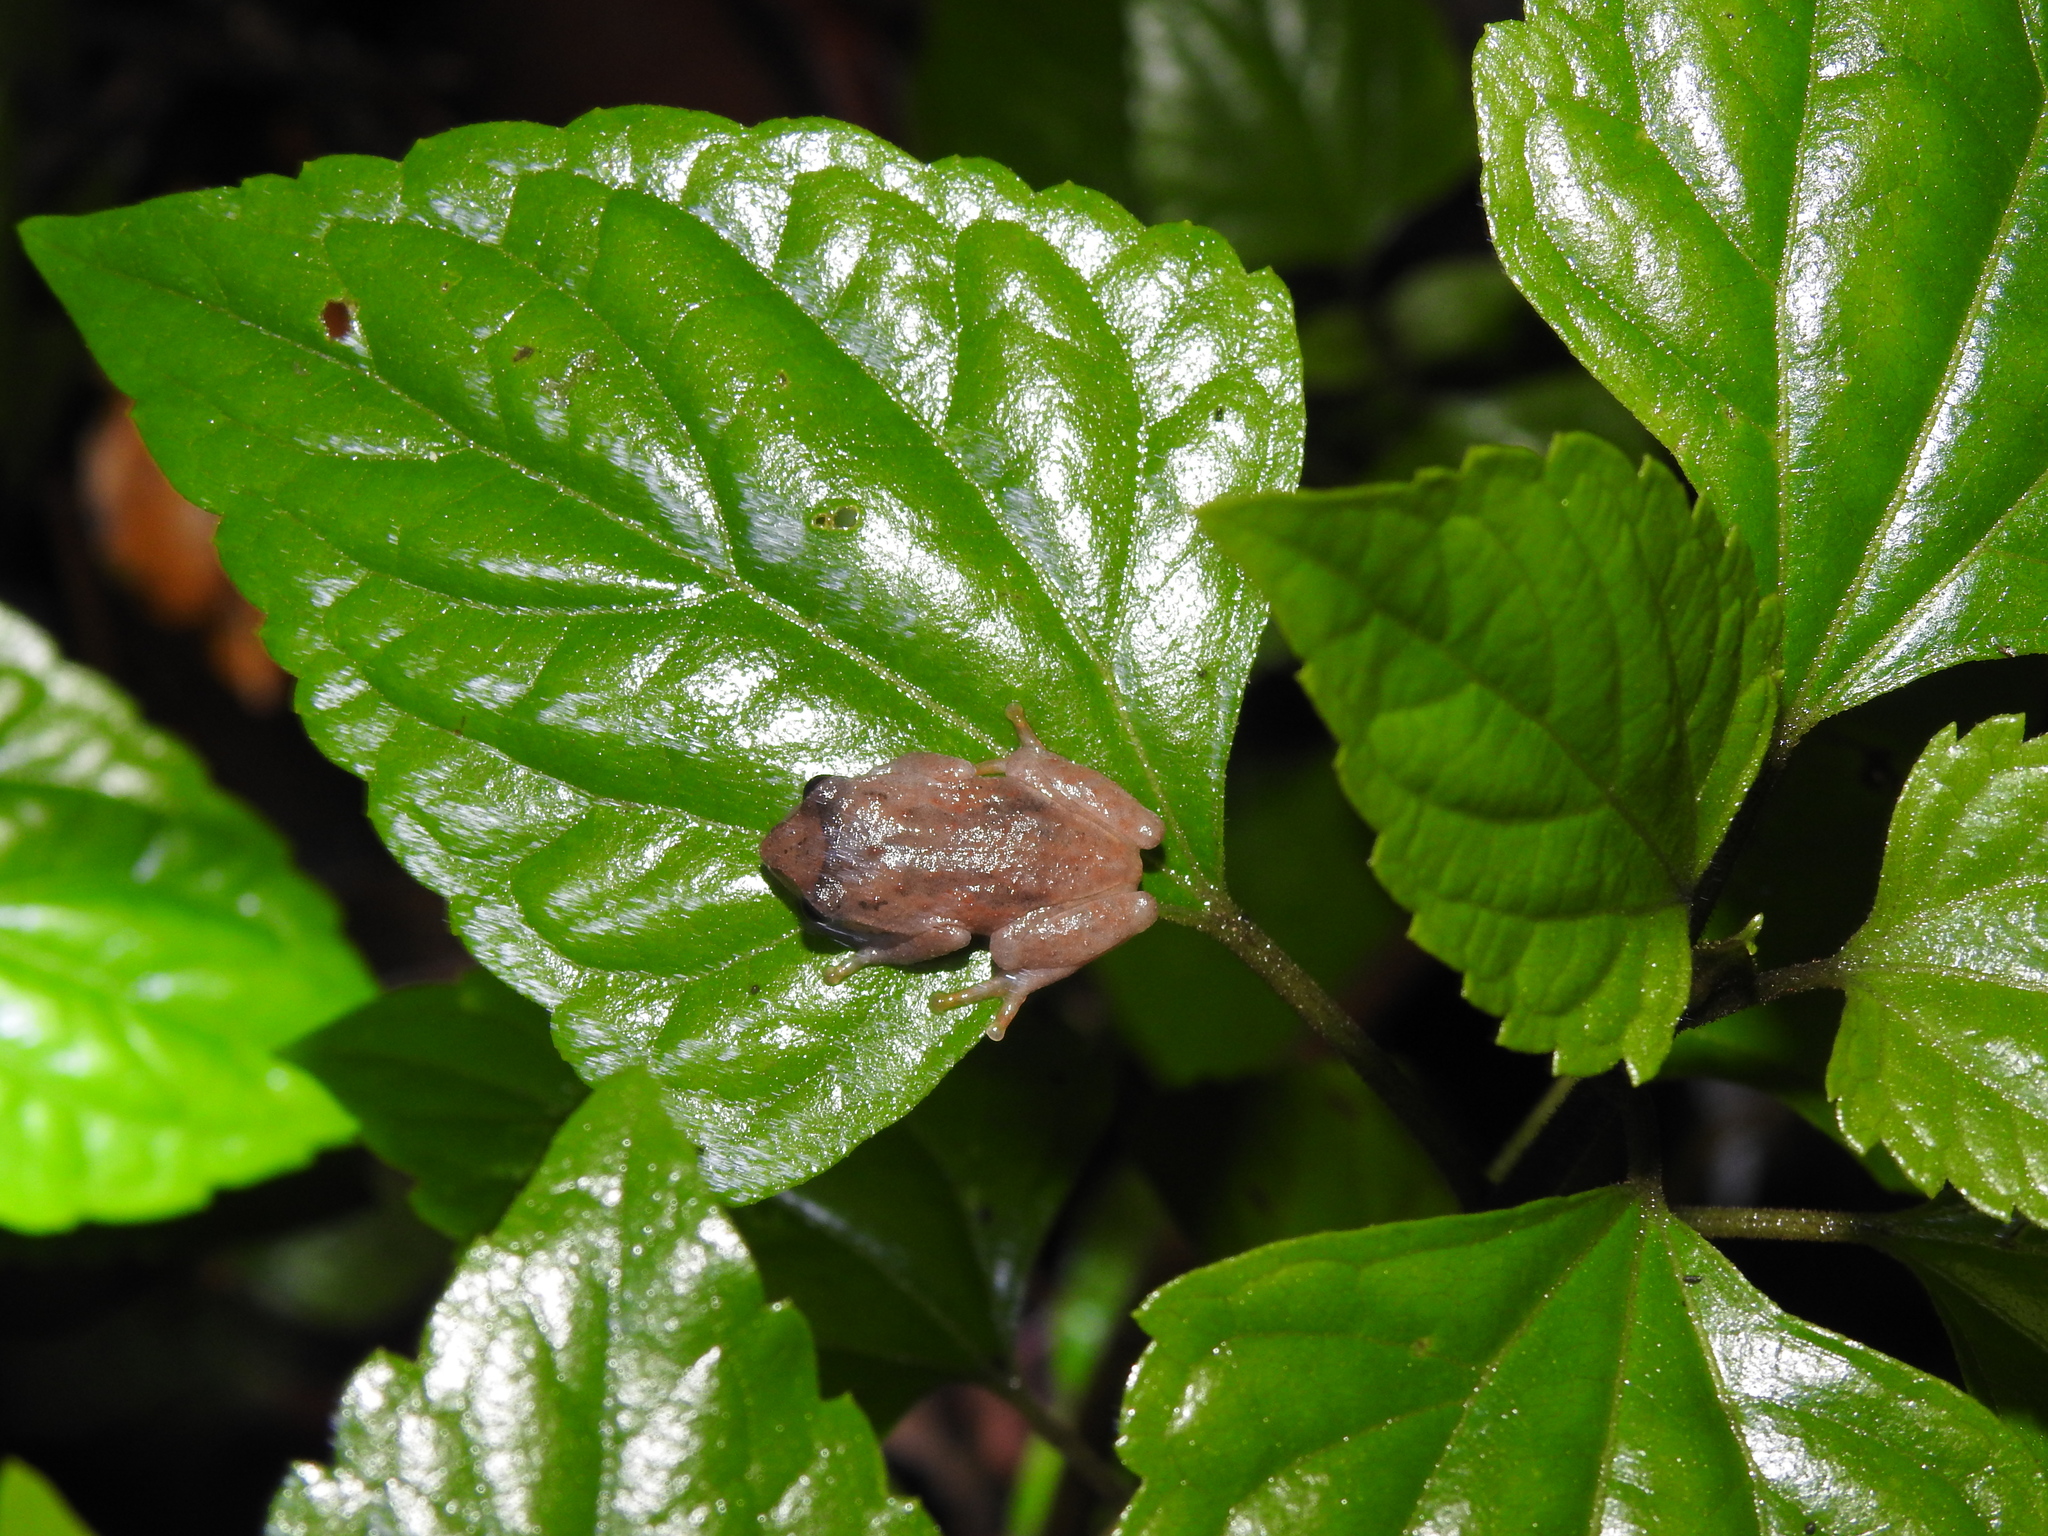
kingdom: Animalia
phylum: Chordata
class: Amphibia
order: Anura
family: Rhacophoridae
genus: Raorchestes
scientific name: Raorchestes dubois
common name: Koadaikanal bush frog
